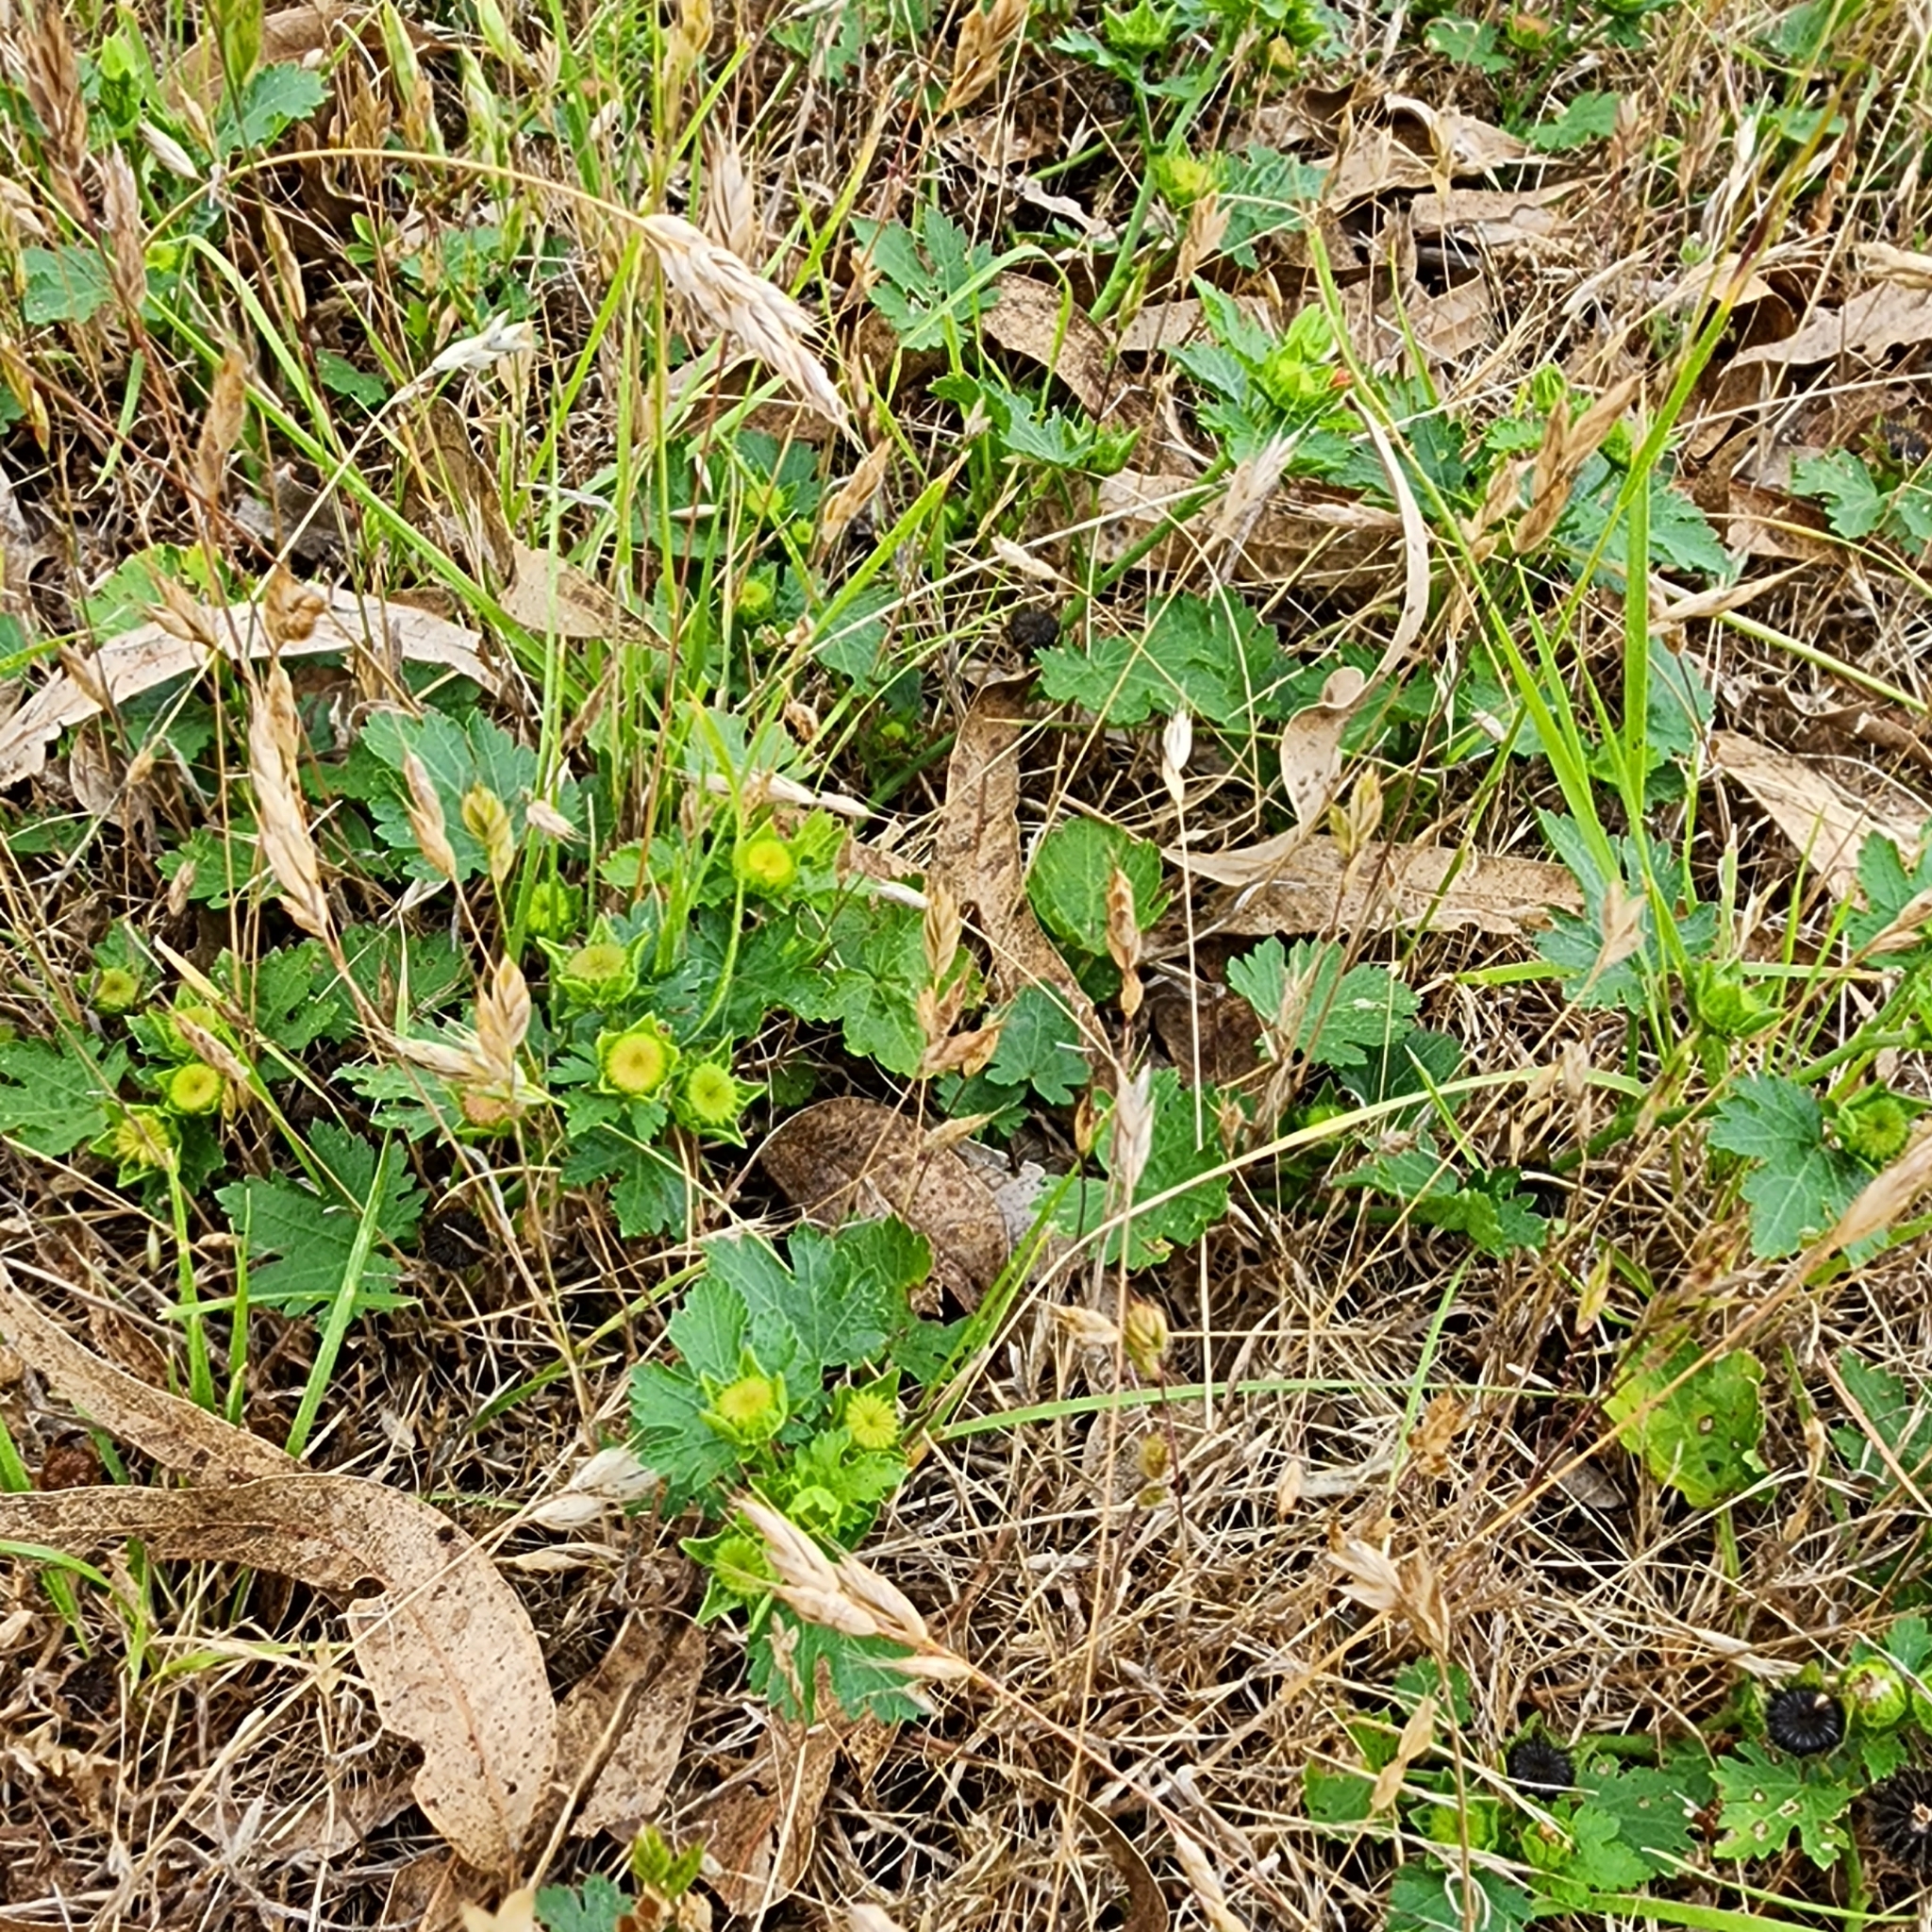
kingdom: Plantae
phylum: Tracheophyta
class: Magnoliopsida
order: Malvales
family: Malvaceae
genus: Modiola
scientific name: Modiola caroliniana
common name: Carolina bristlemallow
